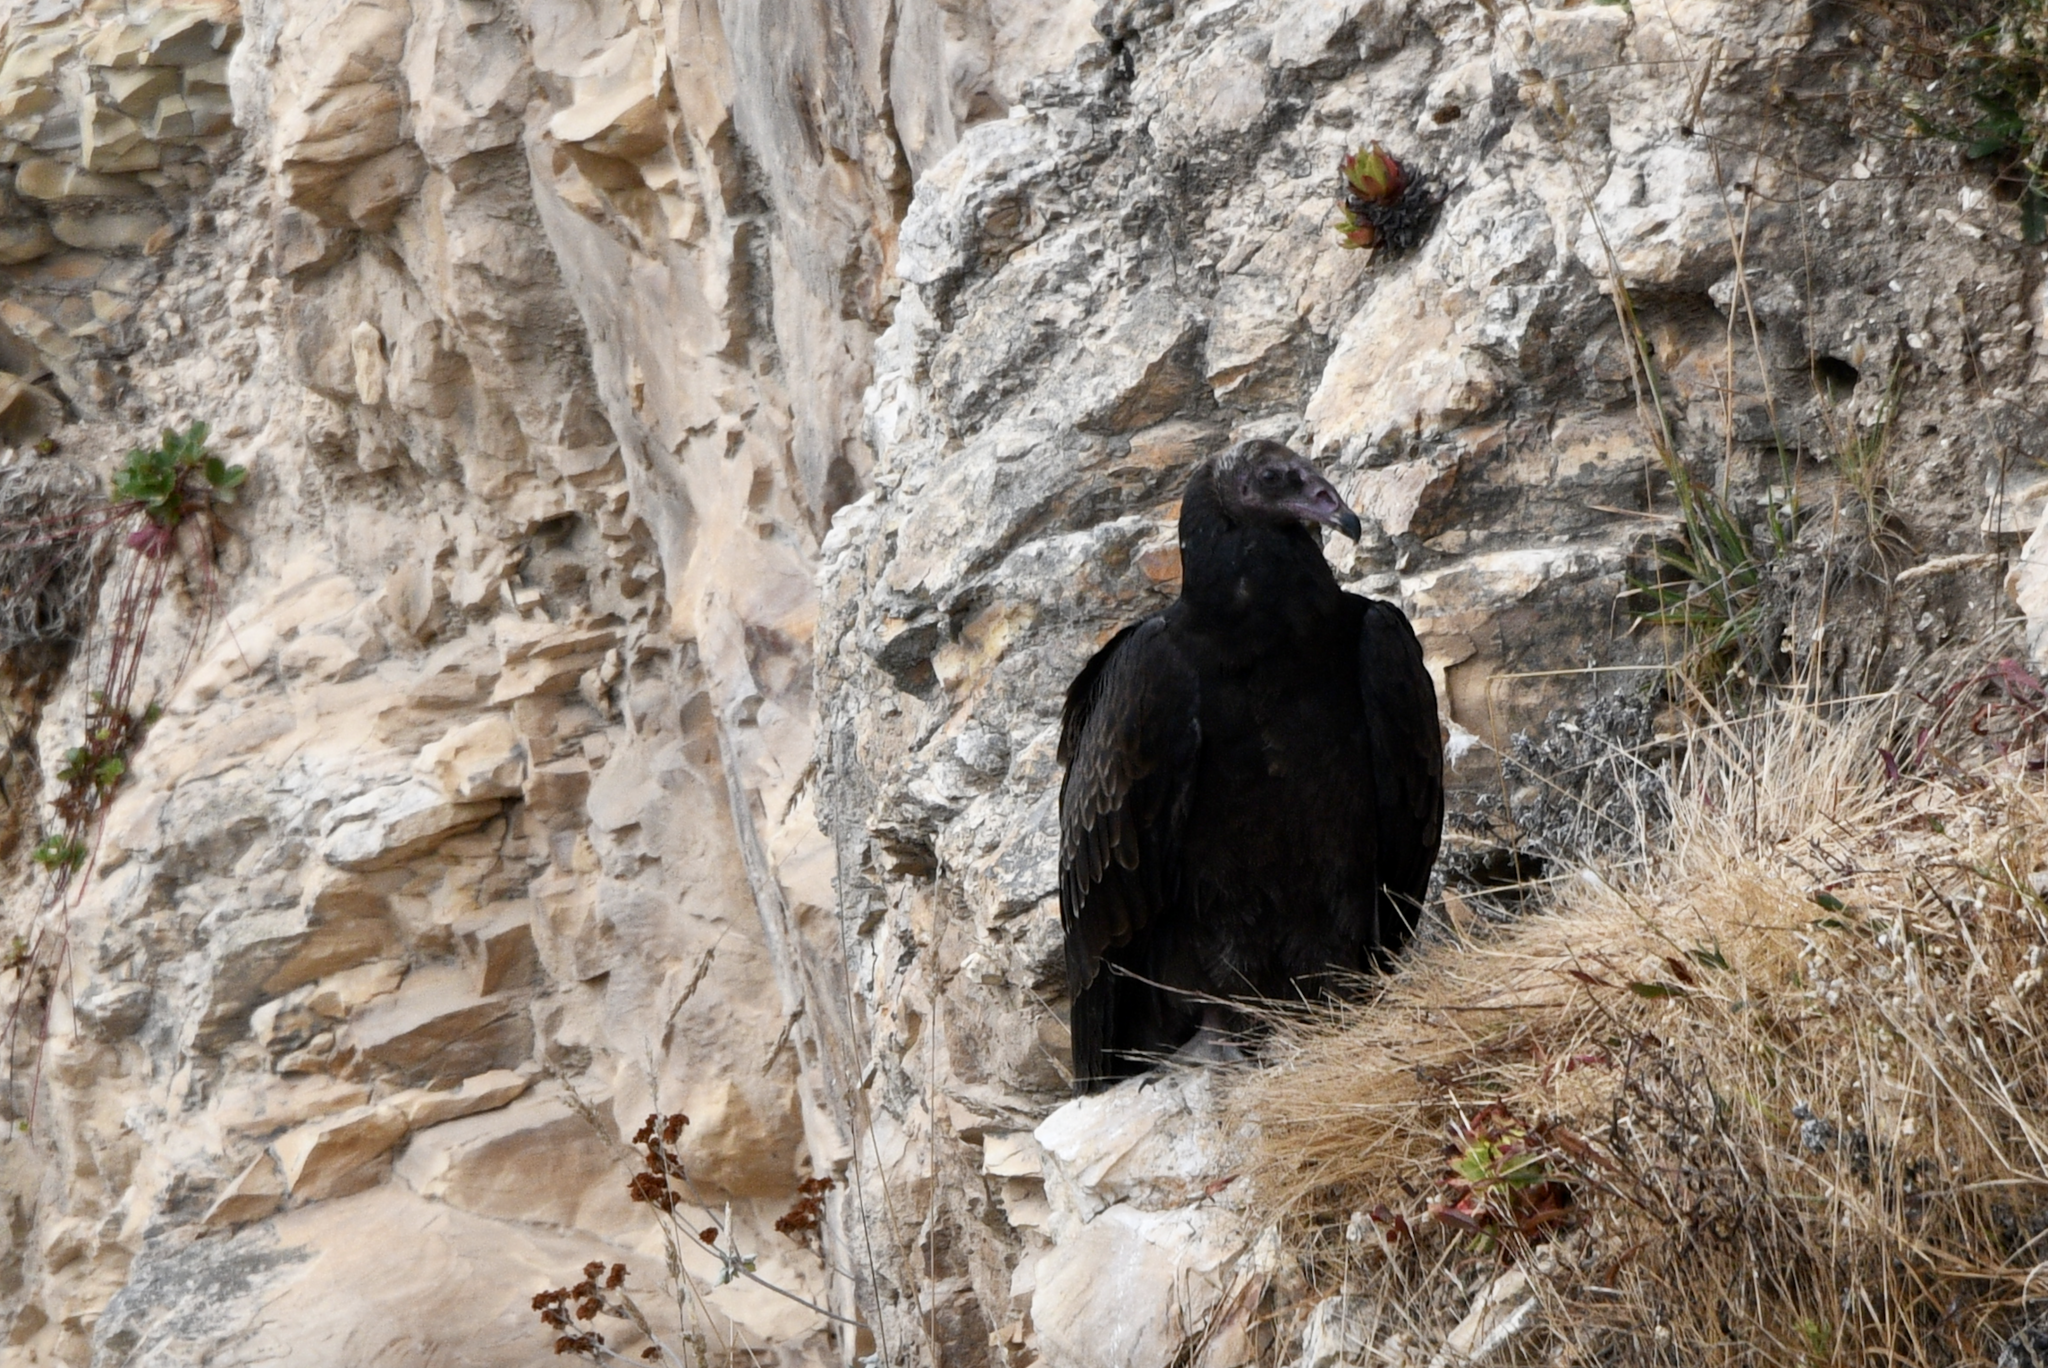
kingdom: Animalia
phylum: Chordata
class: Aves
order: Accipitriformes
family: Cathartidae
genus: Cathartes
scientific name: Cathartes aura
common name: Turkey vulture
